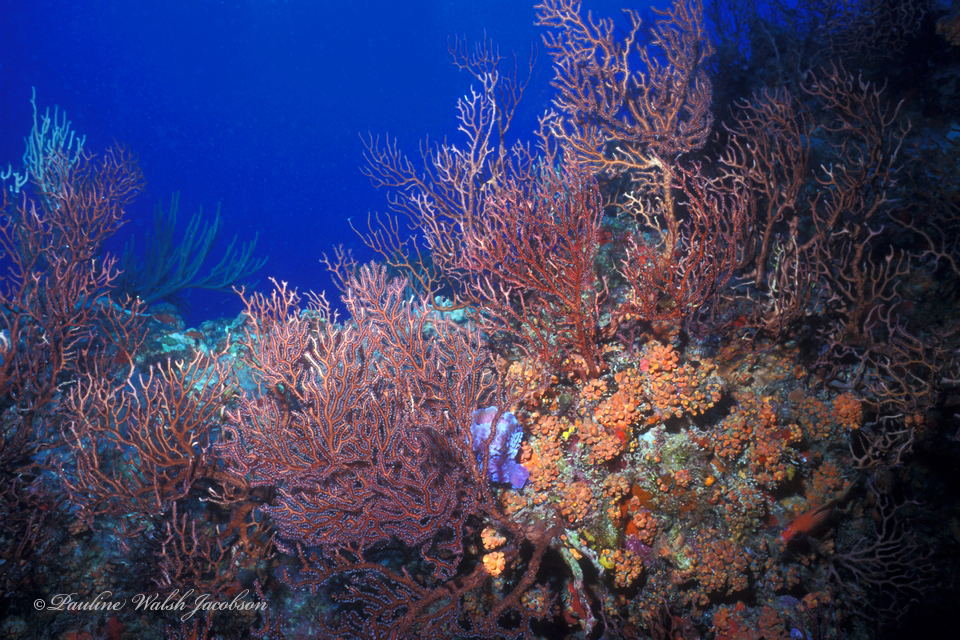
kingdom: Animalia
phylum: Cnidaria
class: Anthozoa
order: Malacalcyonacea
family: Melithaeidae
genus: Iciligorgia
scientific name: Iciligorgia schrammi
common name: Black sea fan
